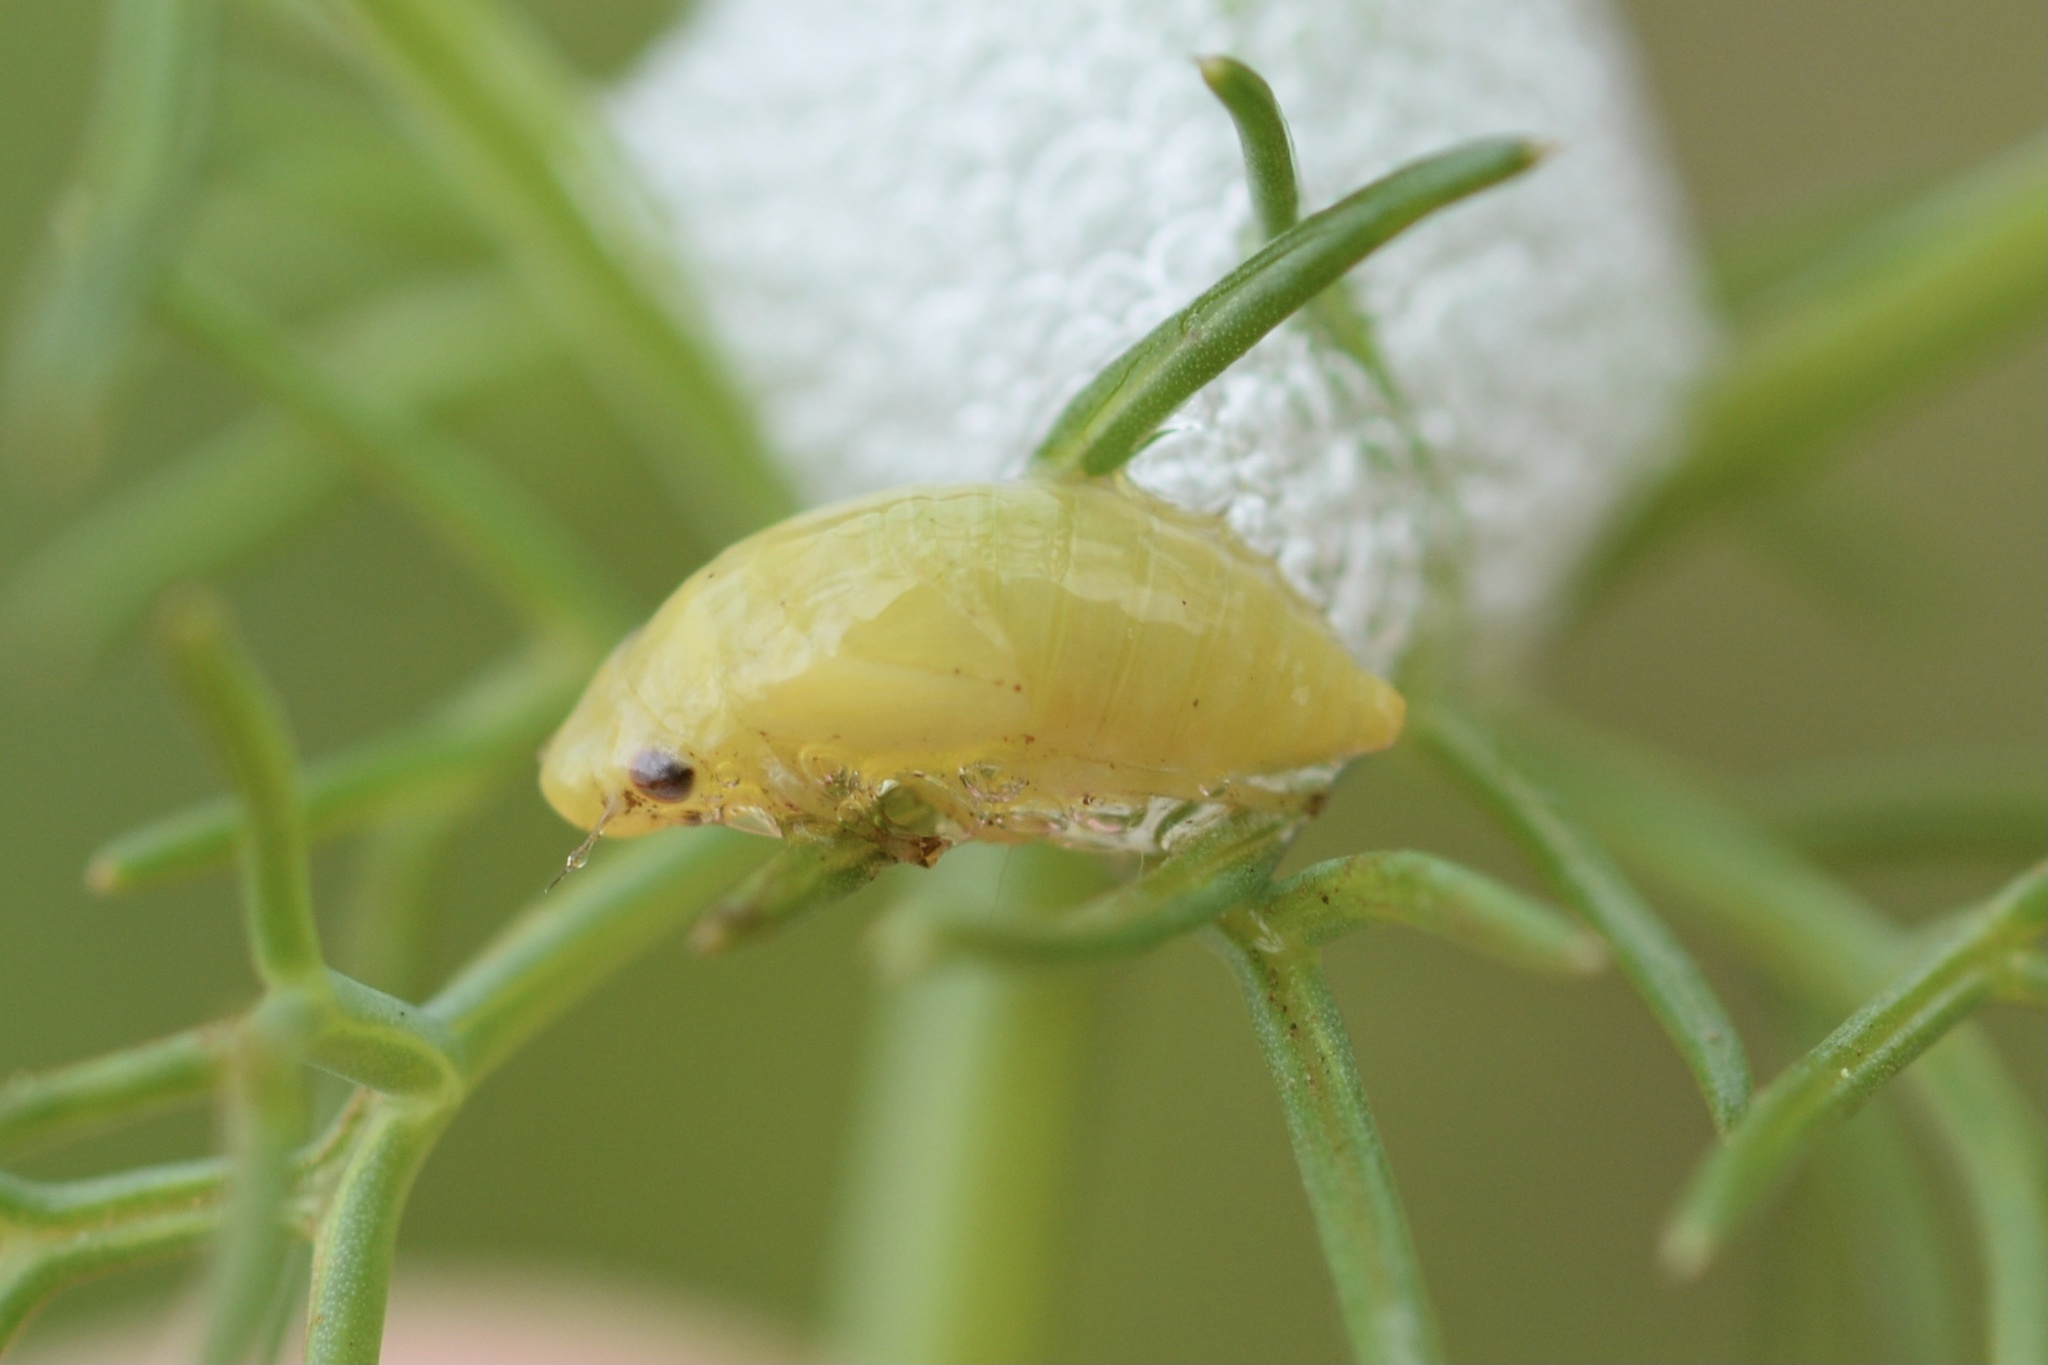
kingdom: Animalia
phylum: Arthropoda
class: Insecta
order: Hemiptera
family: Aphrophoridae
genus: Philaenus
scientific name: Philaenus spumarius
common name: Meadow spittlebug
